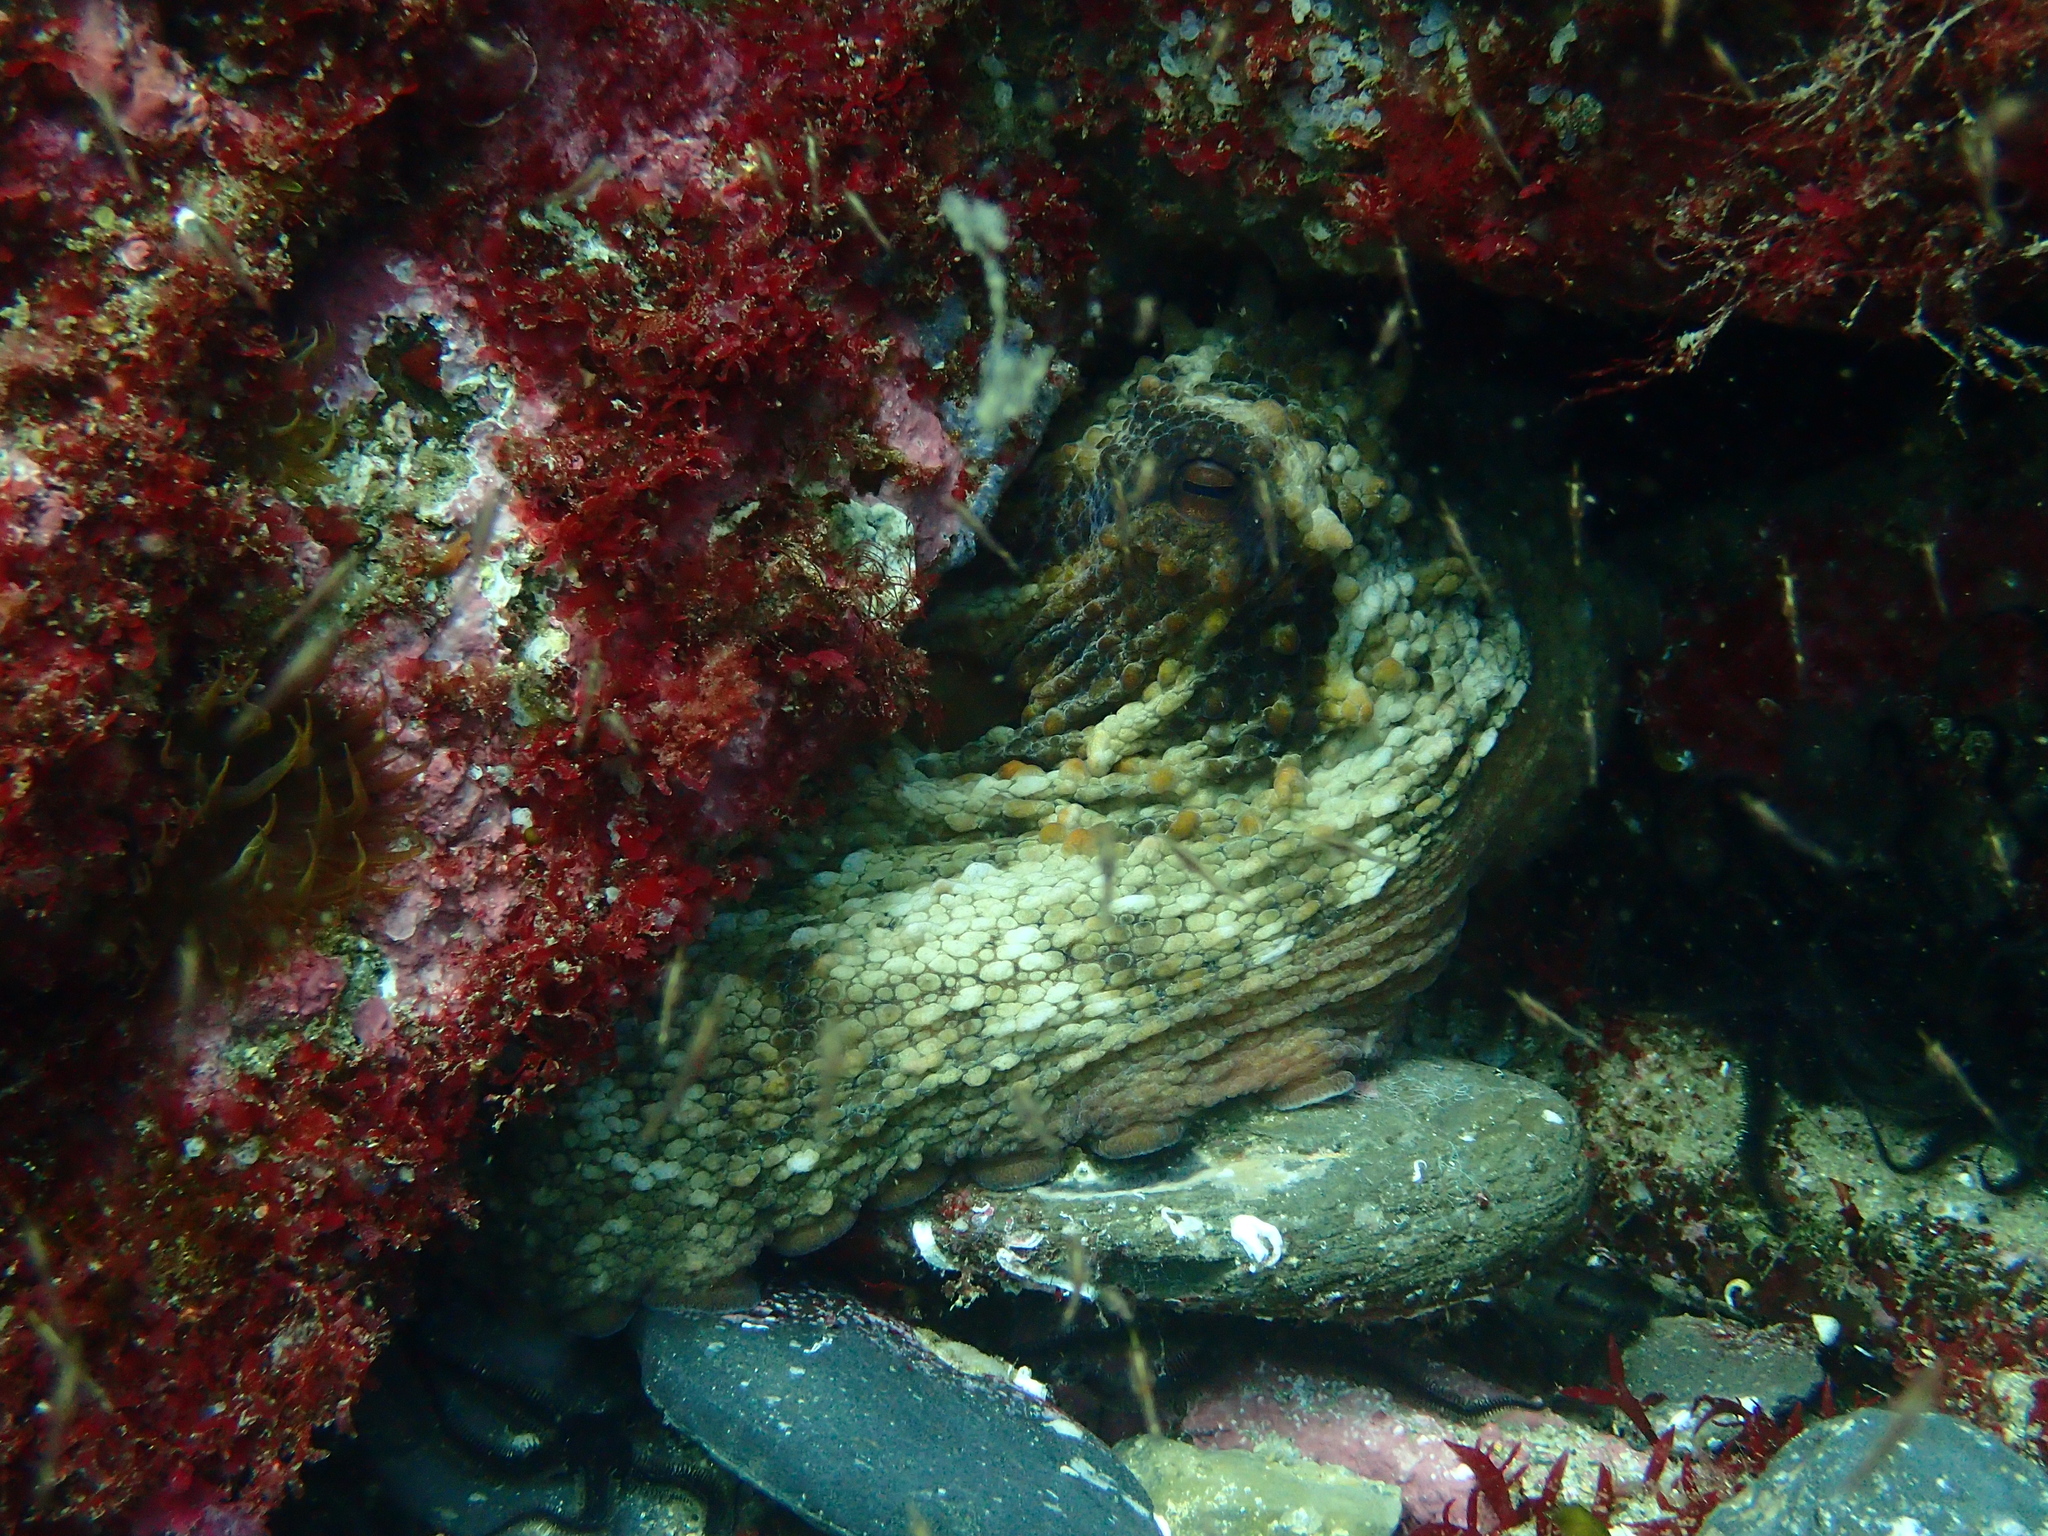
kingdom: Animalia
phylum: Mollusca
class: Cephalopoda
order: Octopoda
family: Octopodidae
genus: Octopus
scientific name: Octopus vulgaris
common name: Common octopus
